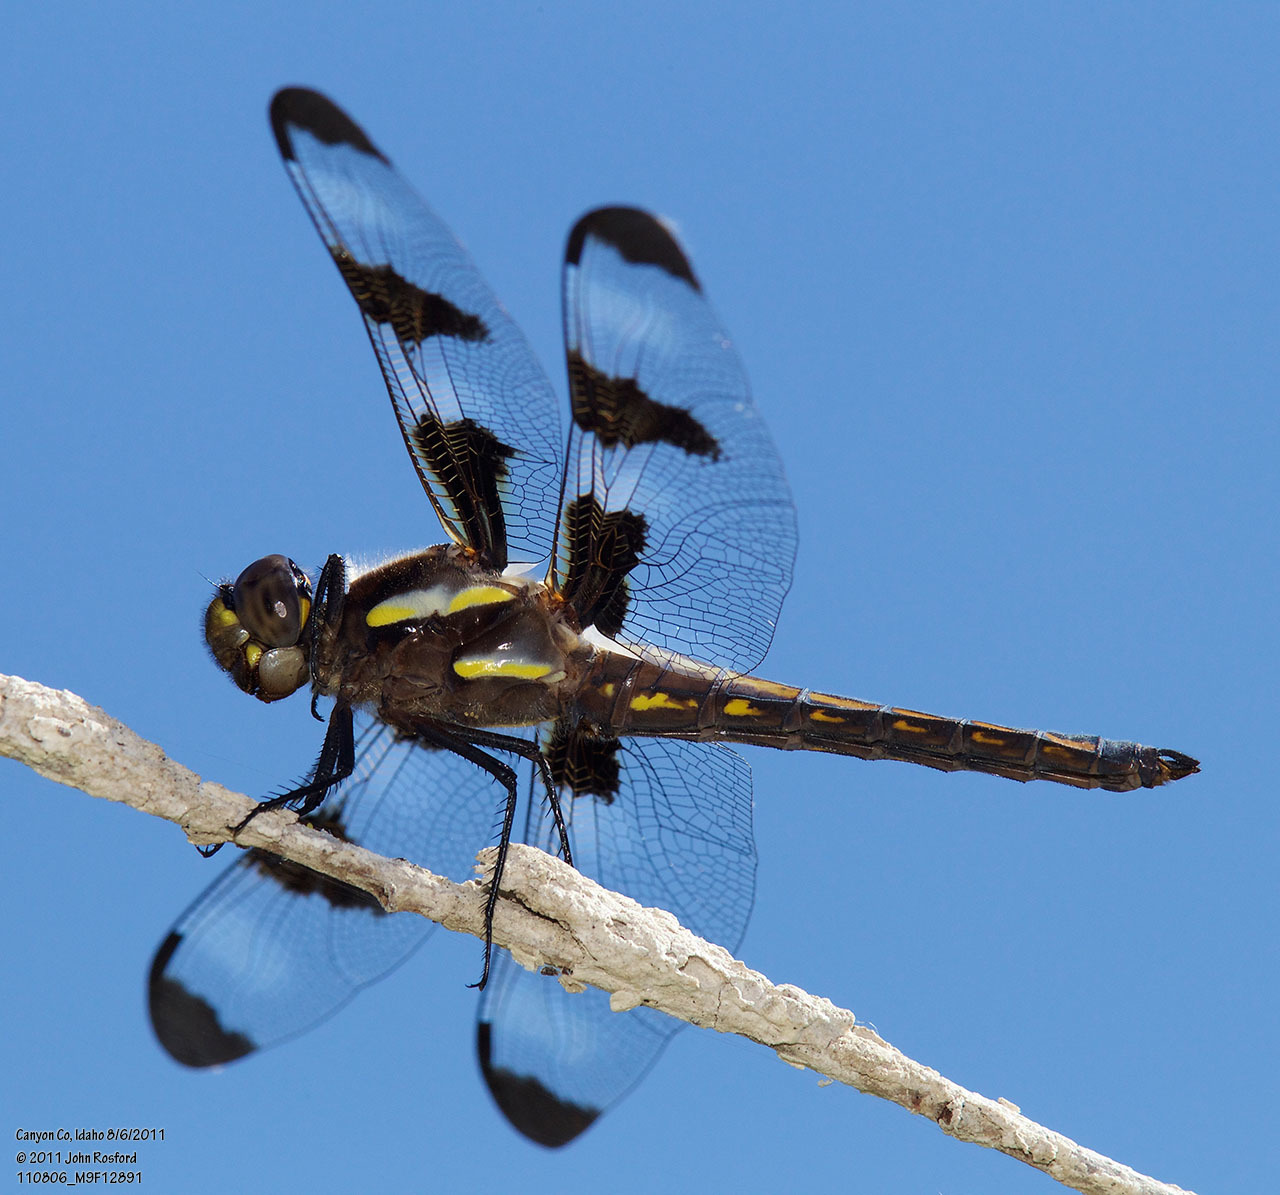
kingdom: Animalia
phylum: Arthropoda
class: Insecta
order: Odonata
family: Libellulidae
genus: Libellula
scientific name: Libellula pulchella
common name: Twelve-spotted skimmer
